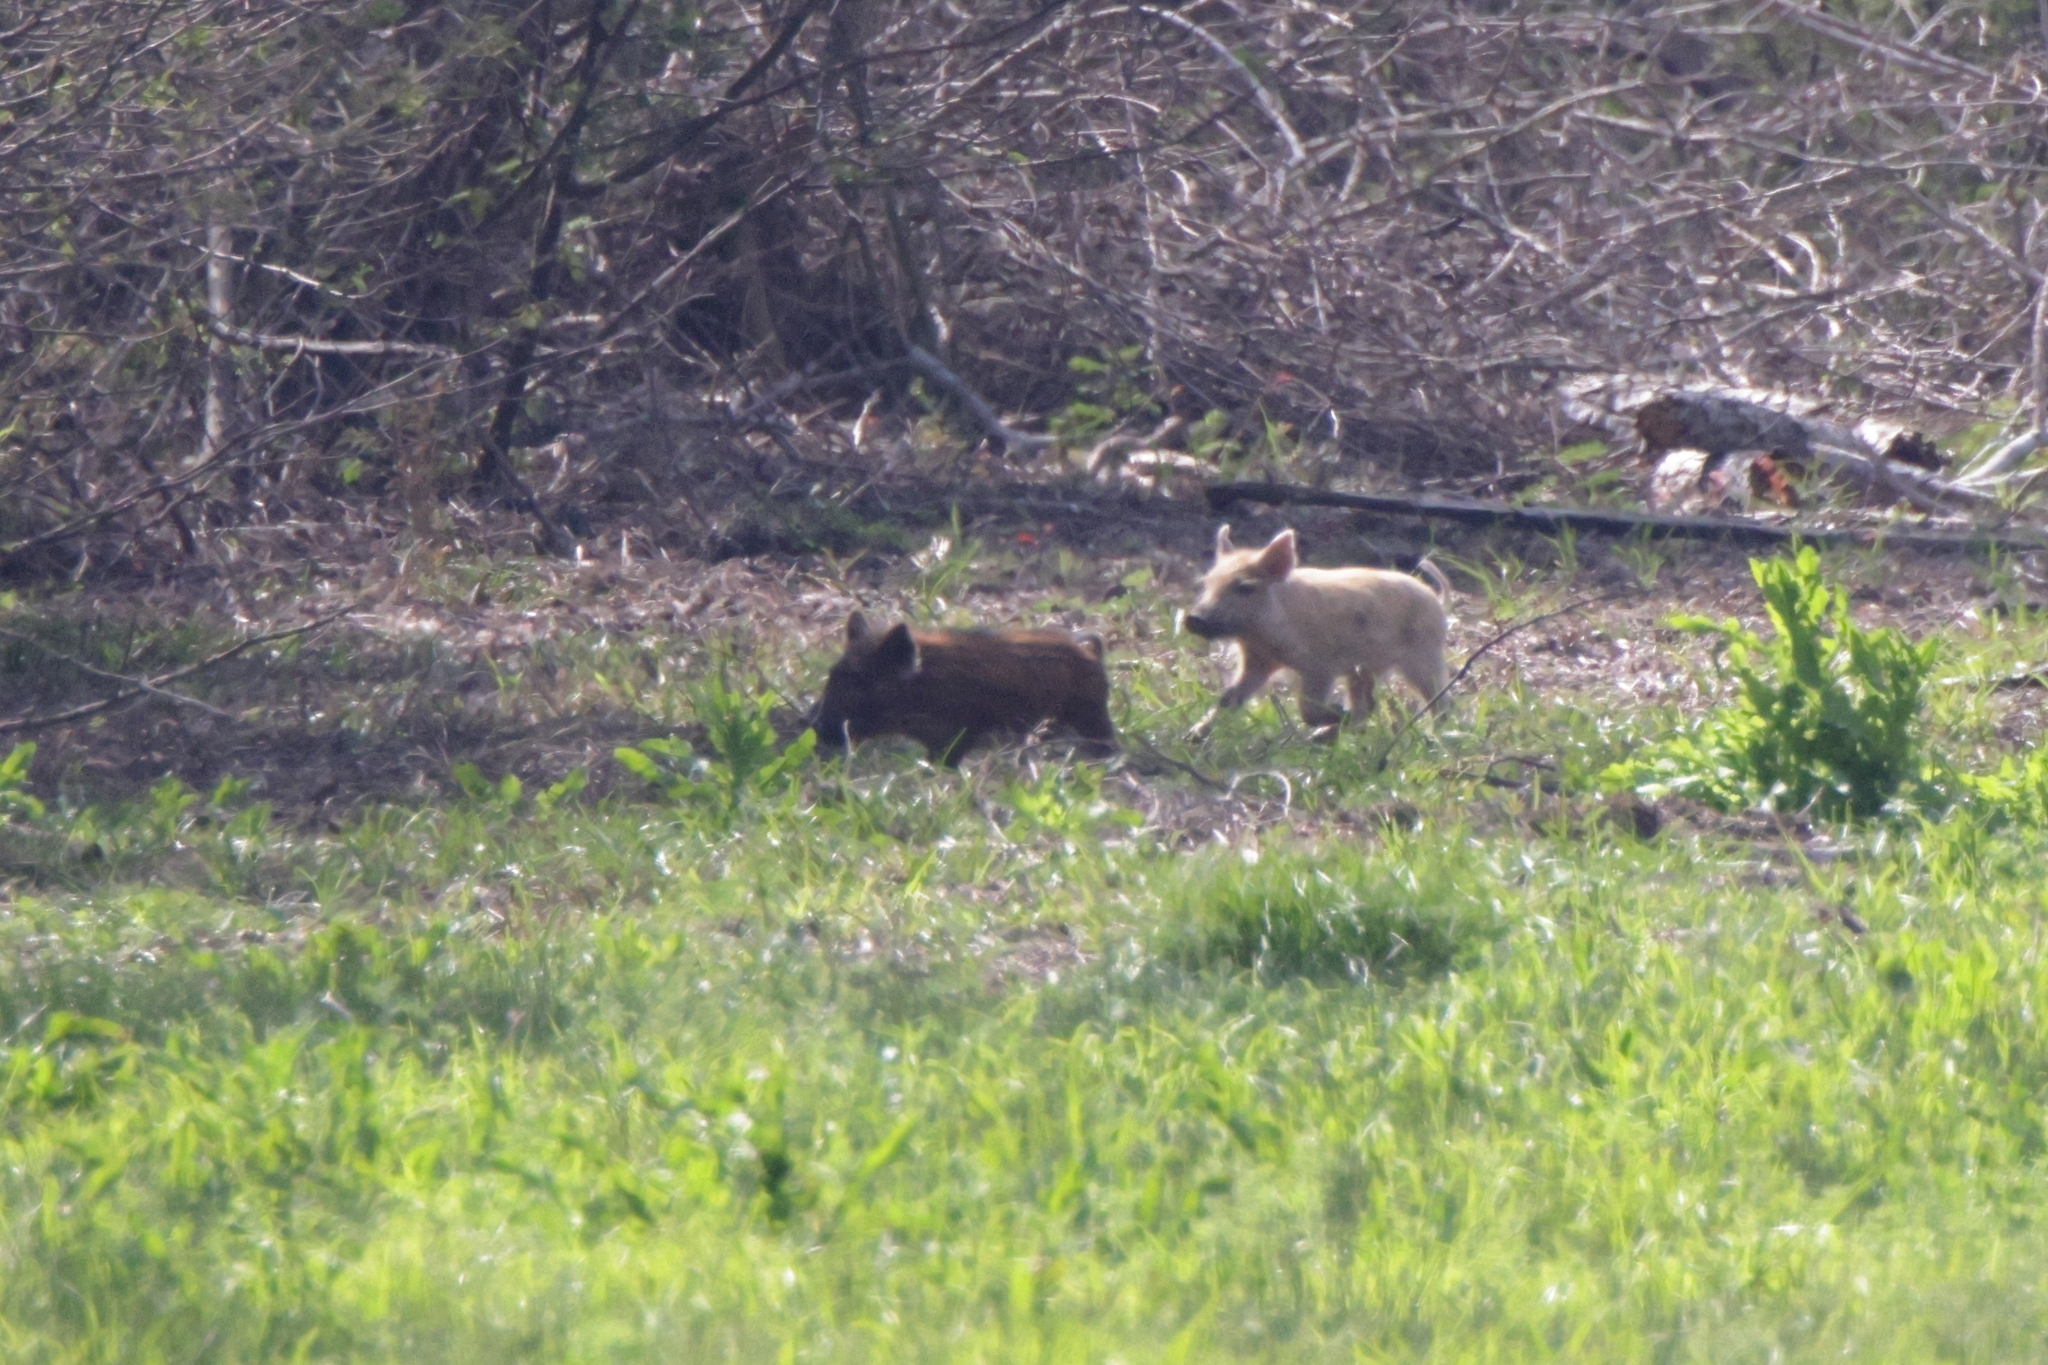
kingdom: Animalia
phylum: Chordata
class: Mammalia
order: Artiodactyla
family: Suidae
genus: Sus
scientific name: Sus scrofa
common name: Wild boar
